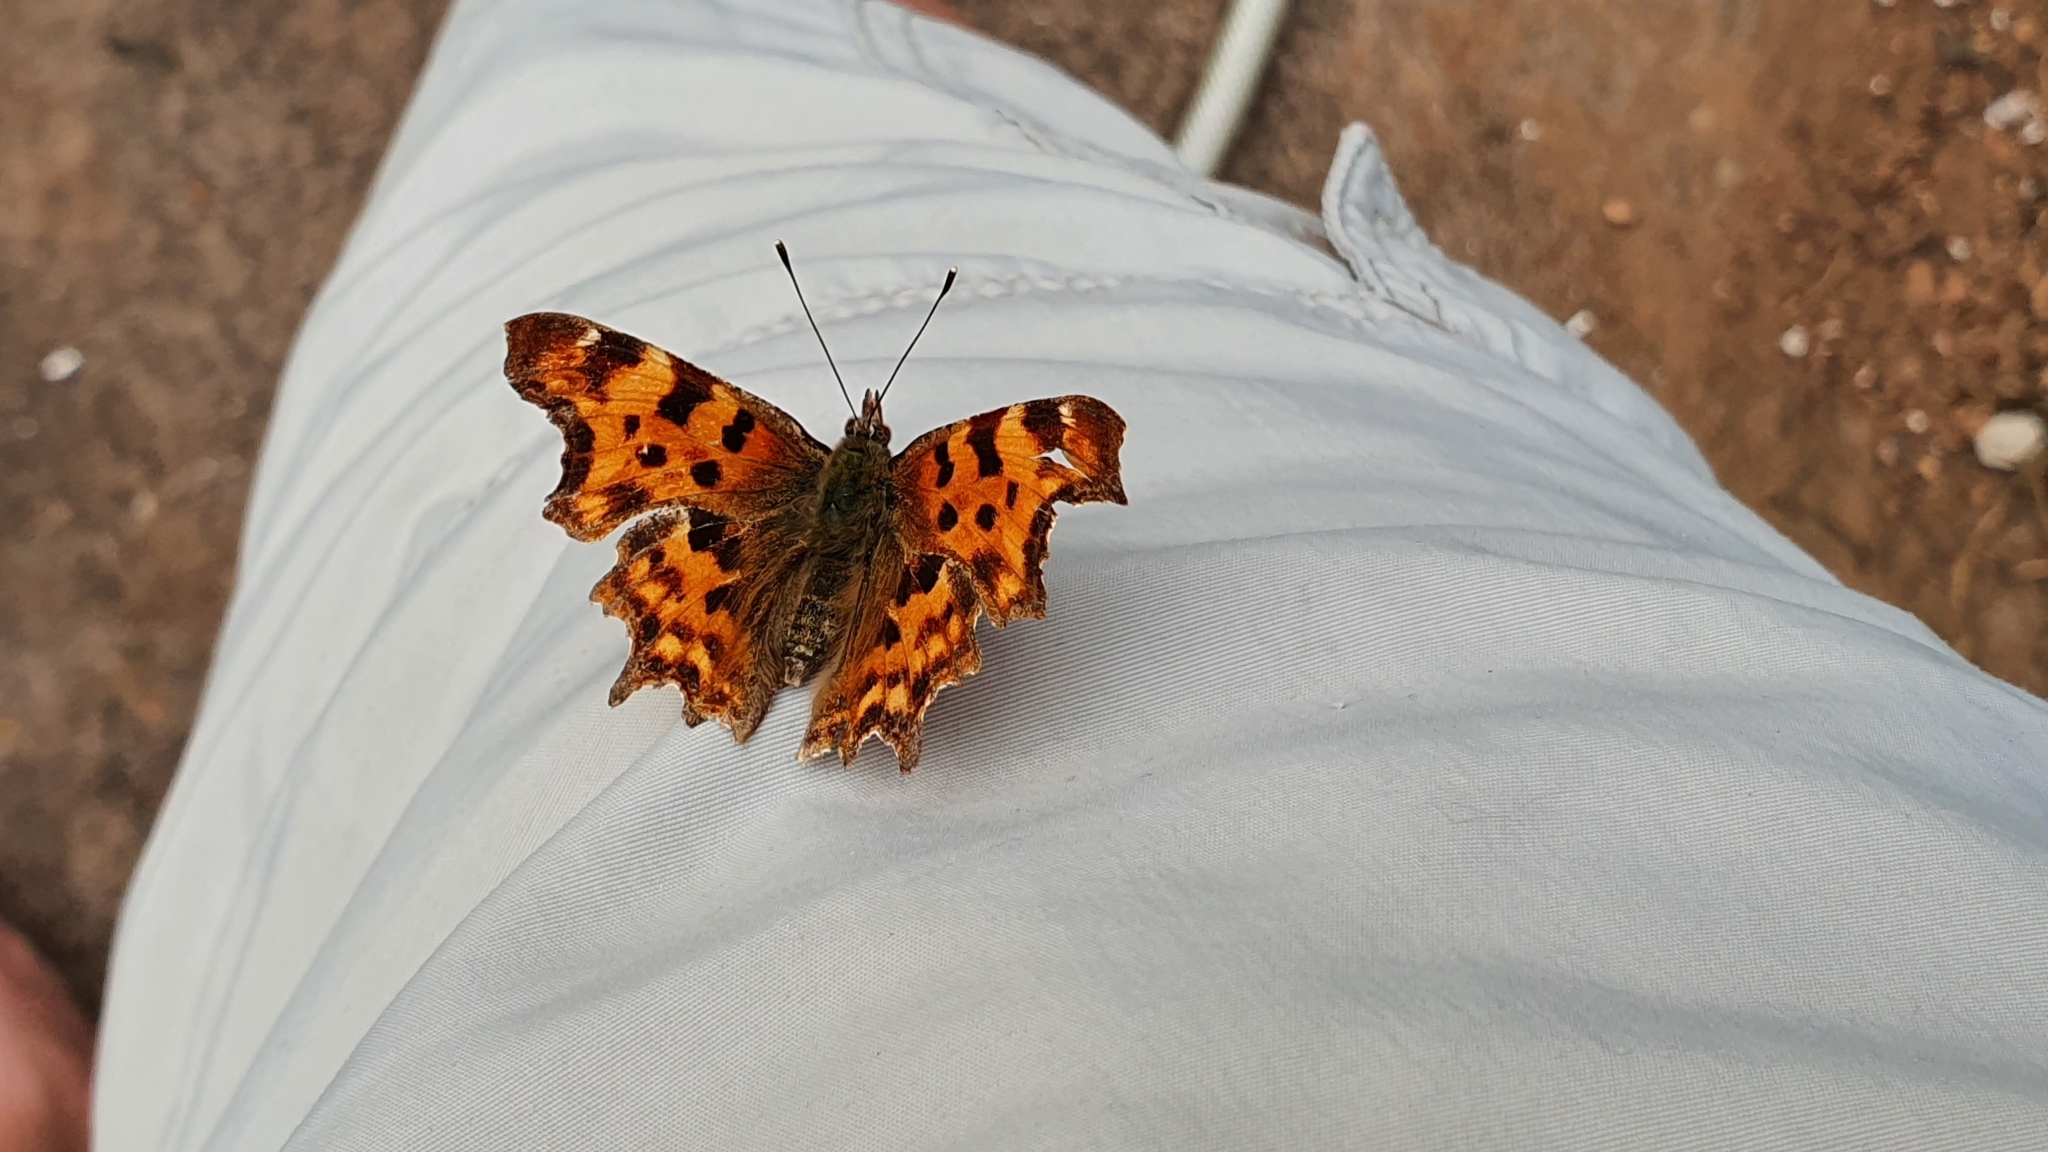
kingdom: Animalia
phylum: Arthropoda
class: Insecta
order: Lepidoptera
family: Nymphalidae
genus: Polygonia
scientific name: Polygonia c-album
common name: Comma
